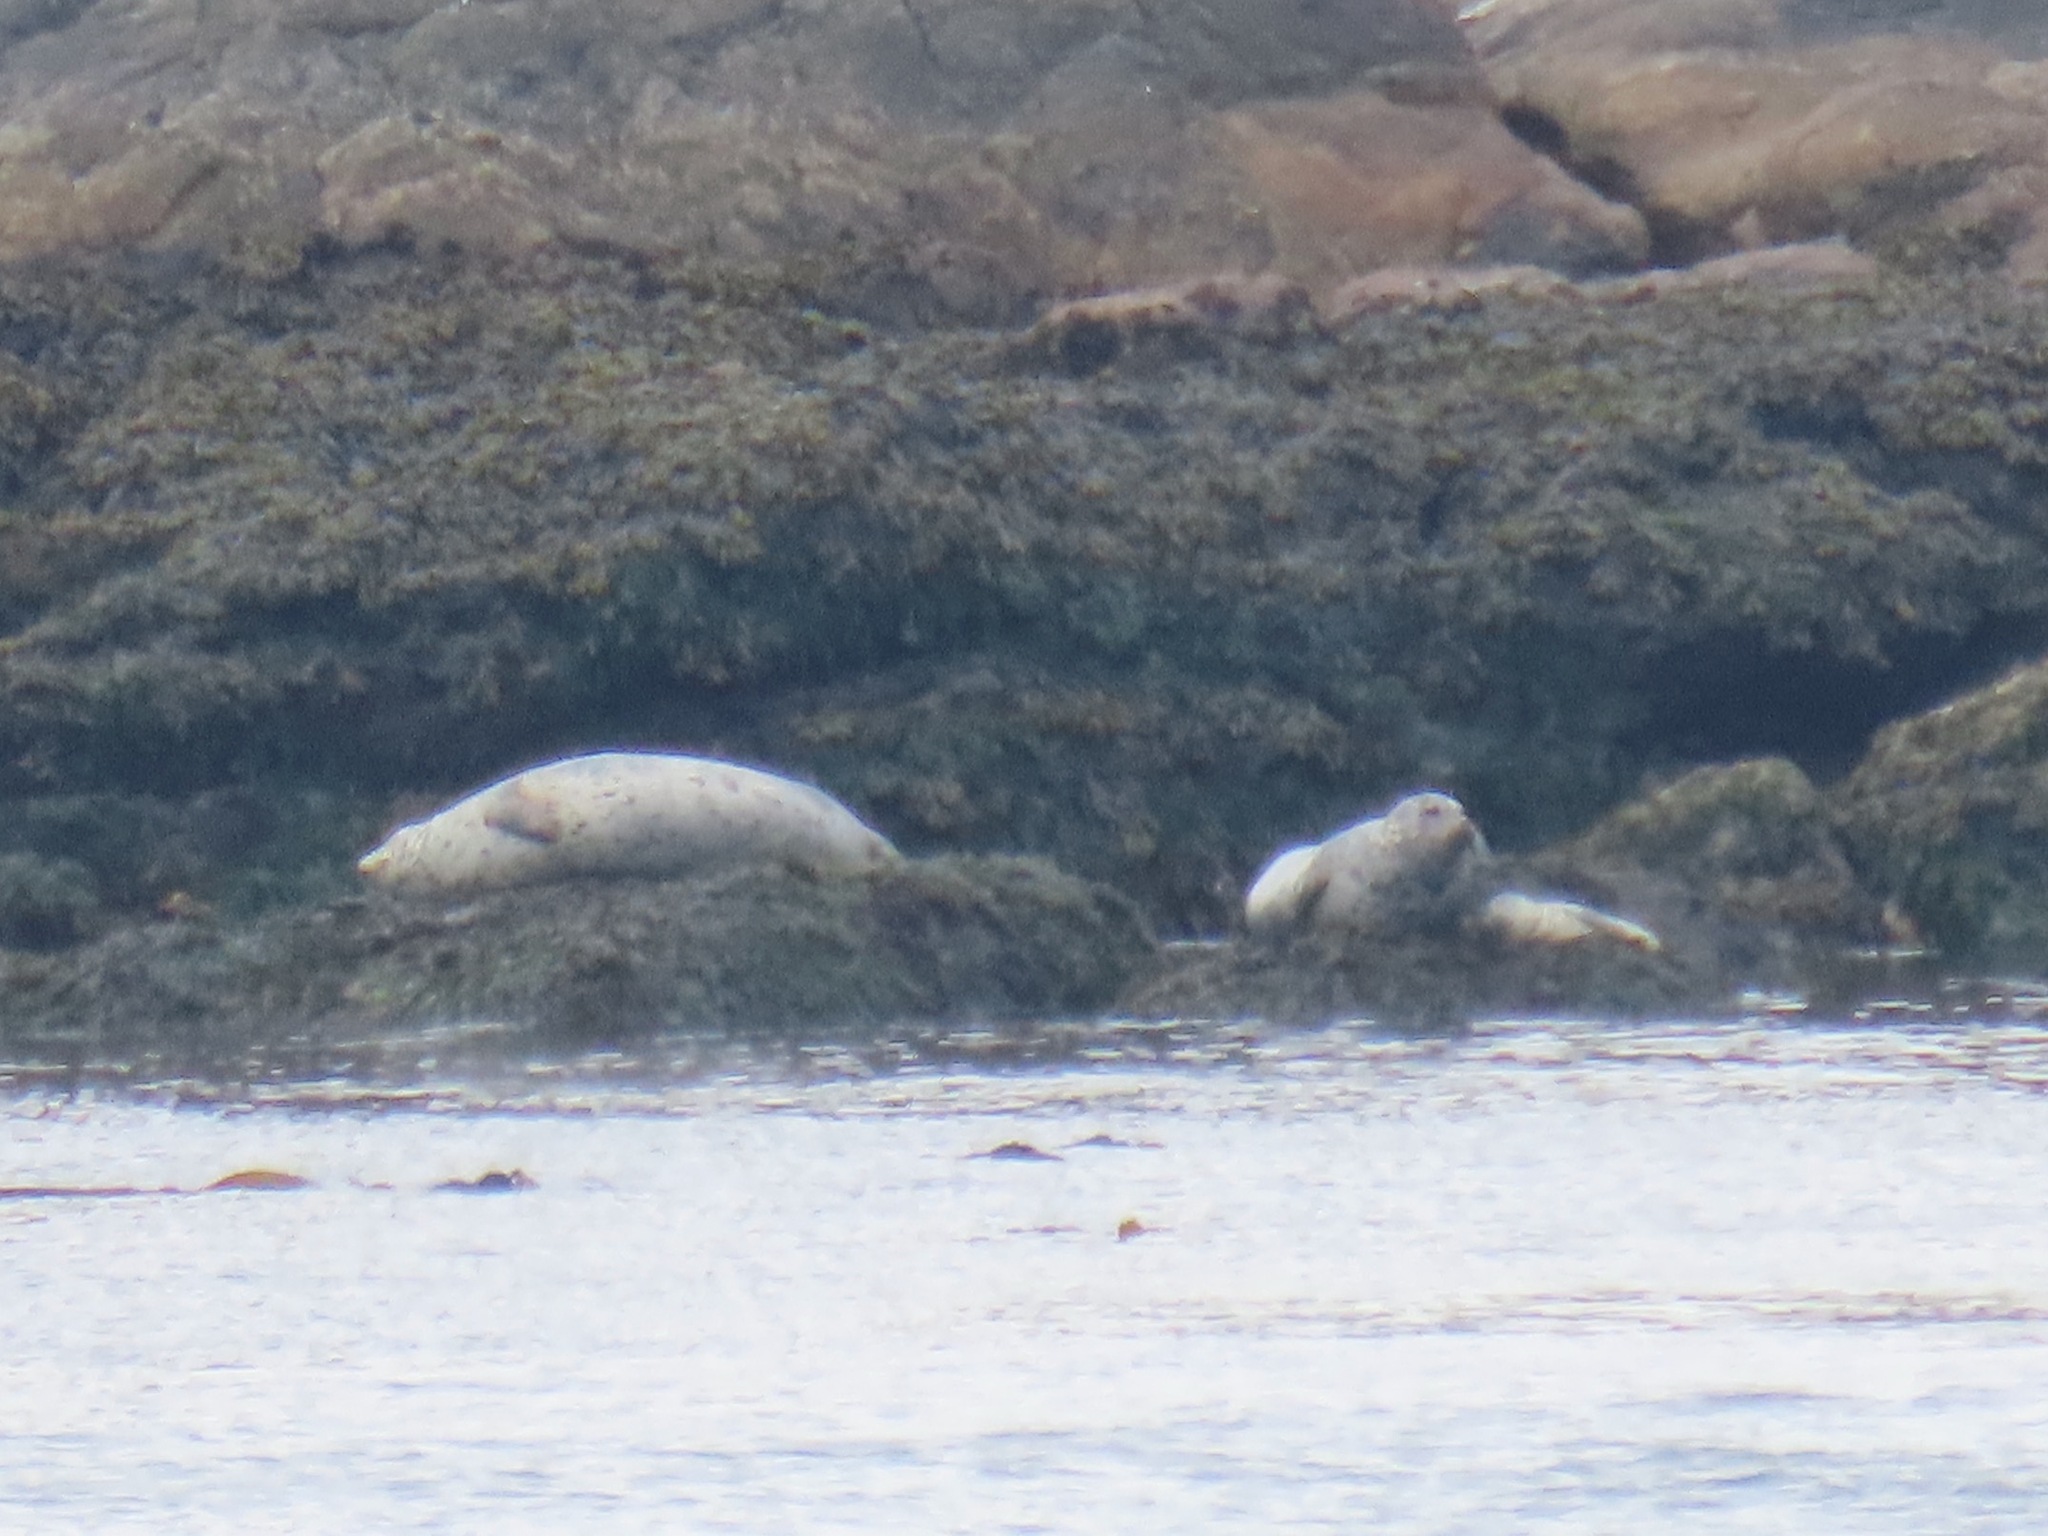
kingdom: Animalia
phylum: Chordata
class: Mammalia
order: Carnivora
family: Phocidae
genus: Phoca
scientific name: Phoca vitulina
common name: Harbor seal
